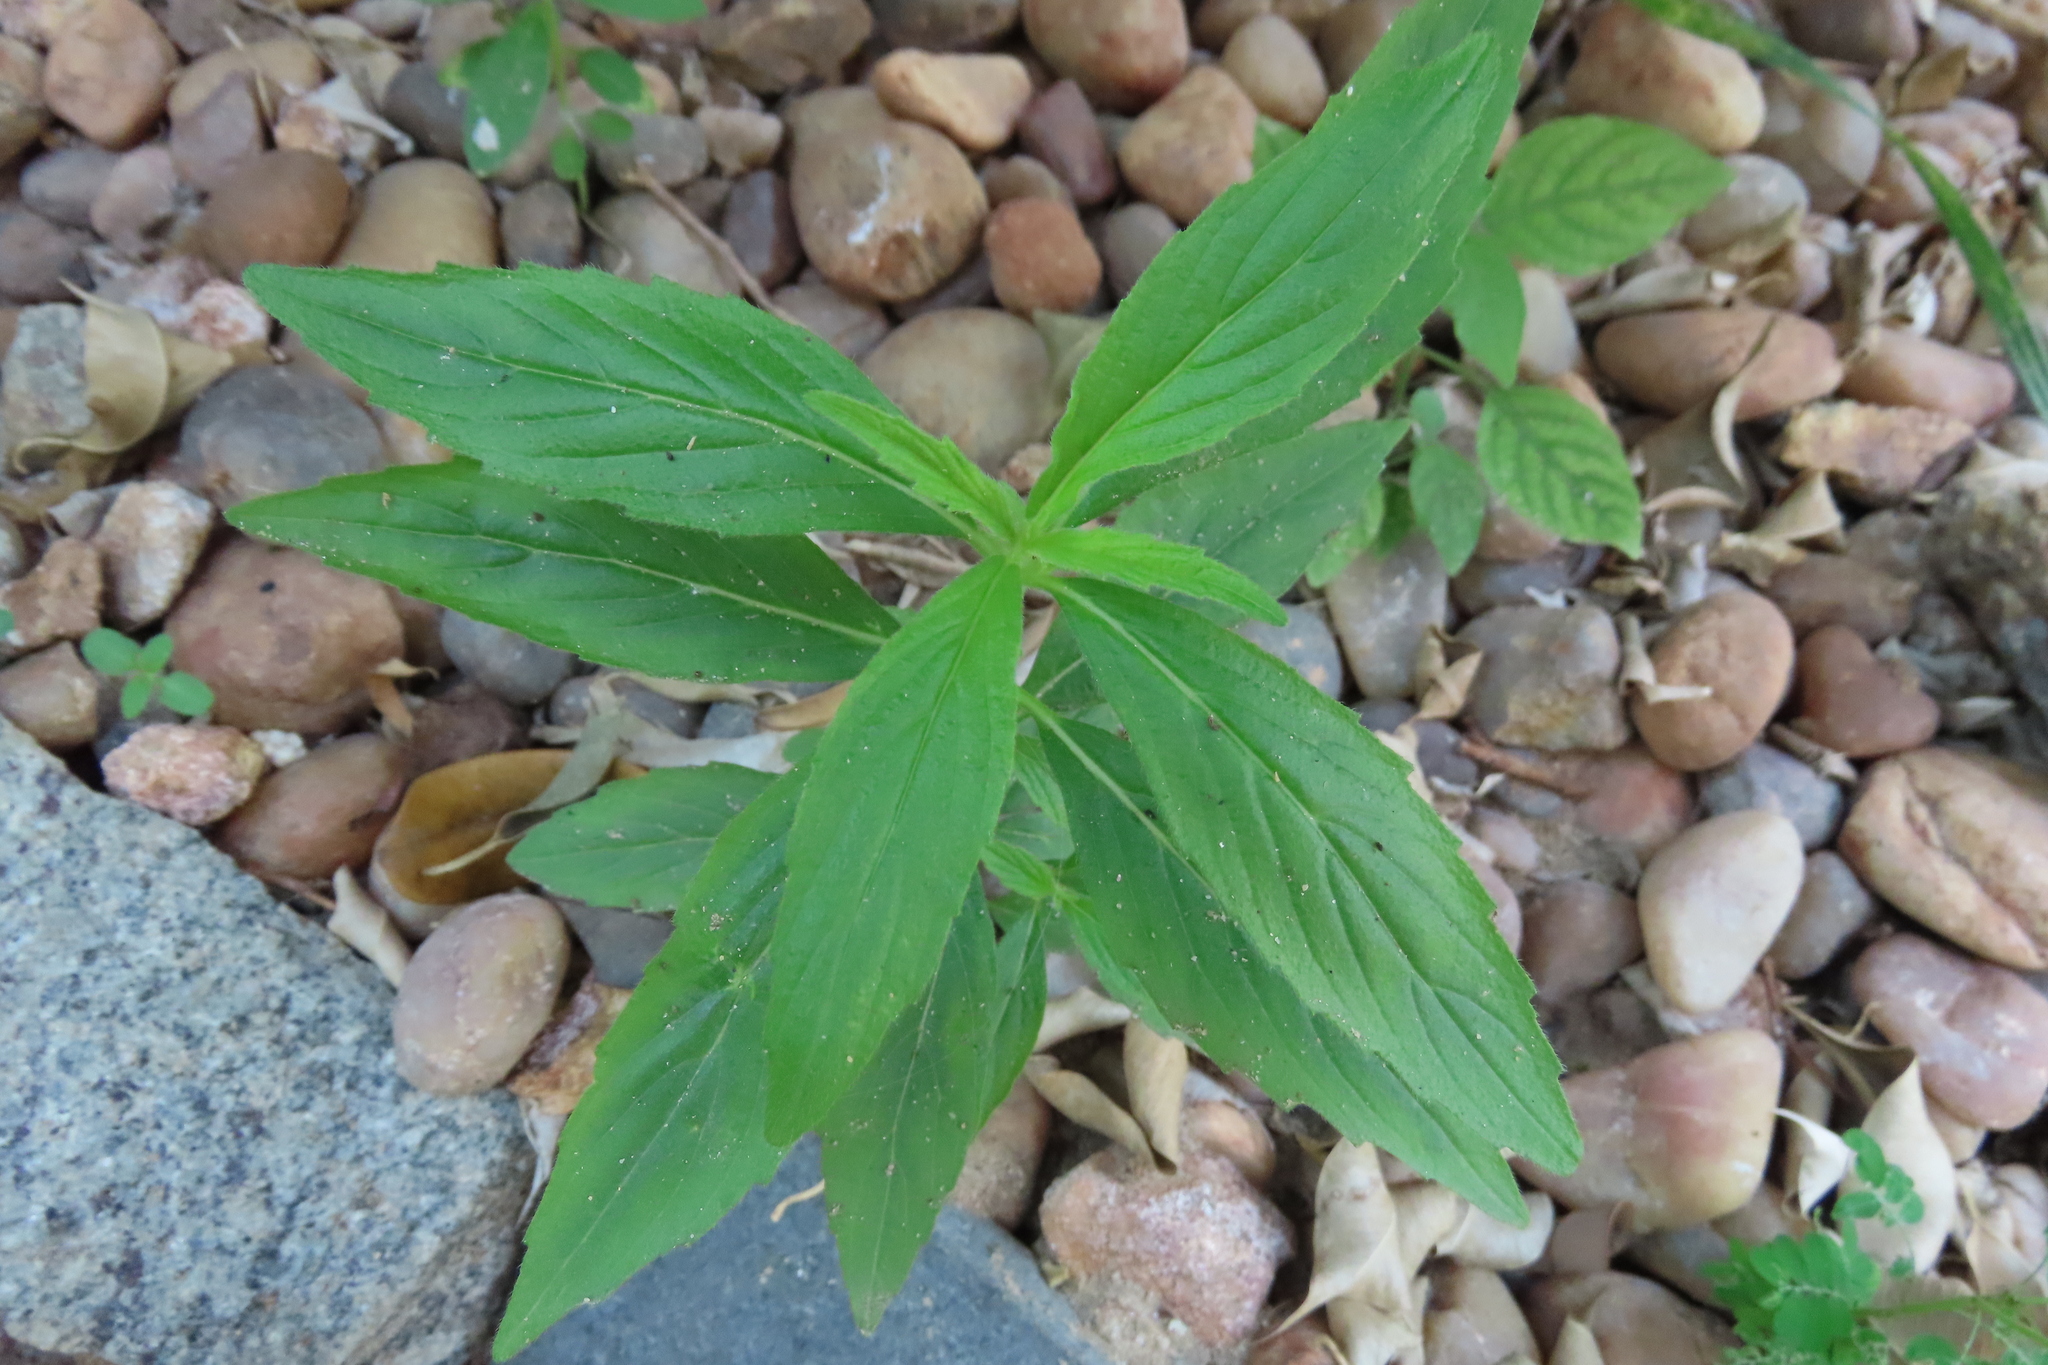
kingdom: Plantae
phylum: Tracheophyta
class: Magnoliopsida
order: Lamiales
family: Lamiaceae
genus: Leucas
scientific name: Leucas aspera
